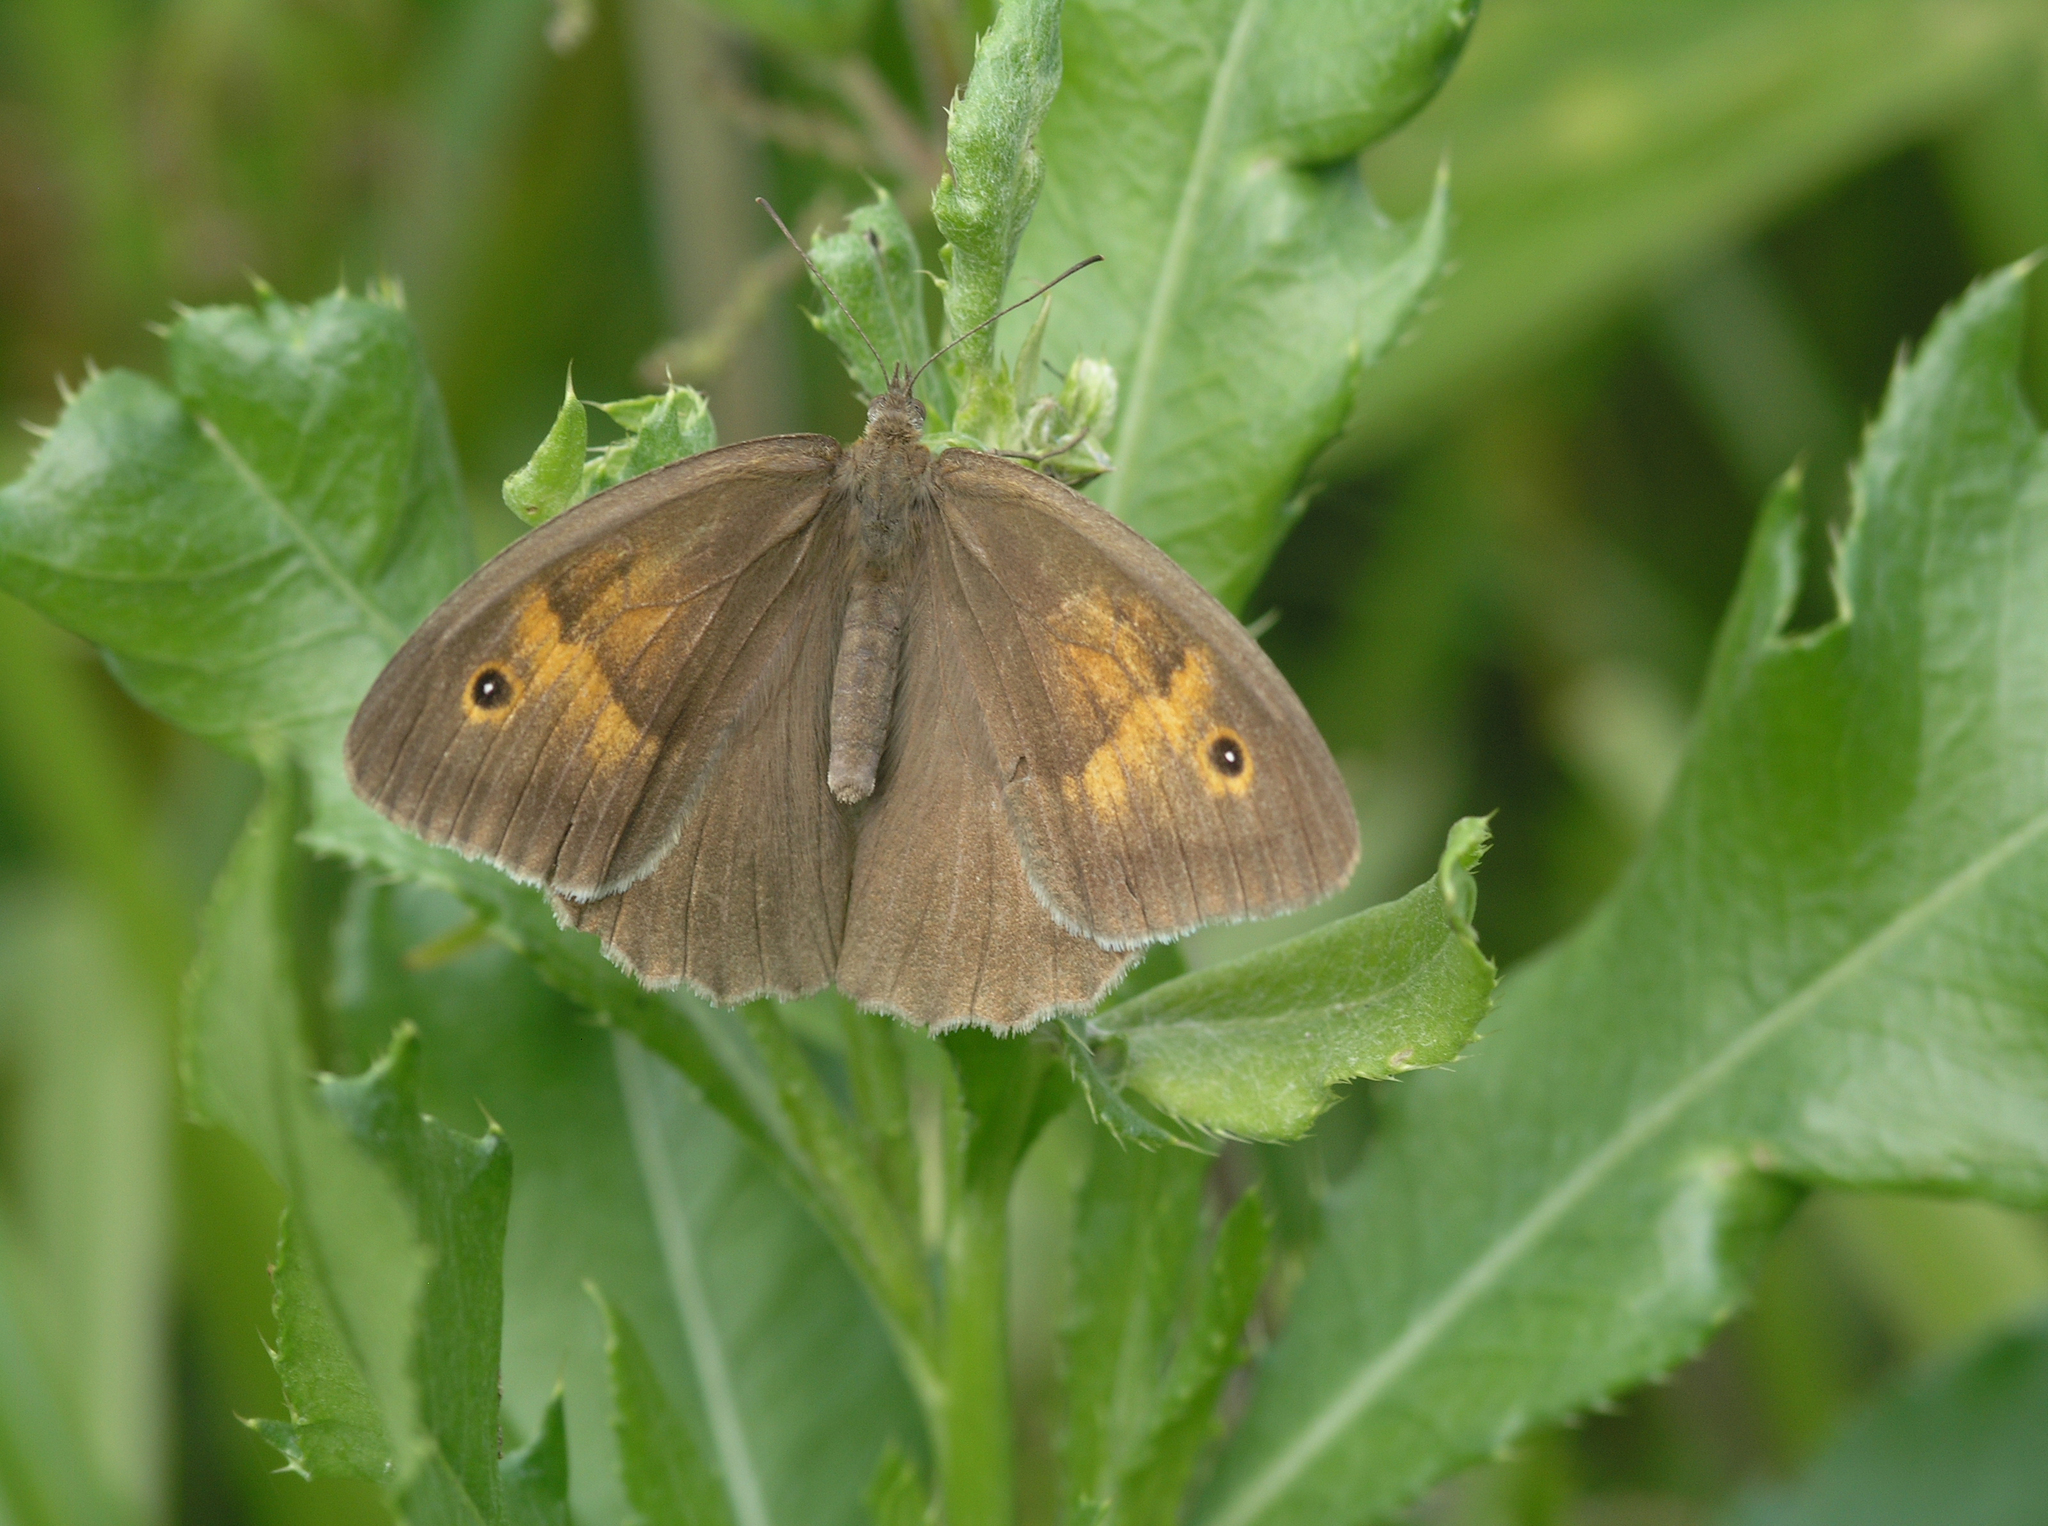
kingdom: Animalia
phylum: Arthropoda
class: Insecta
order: Lepidoptera
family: Nymphalidae
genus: Maniola
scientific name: Maniola jurtina
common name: Meadow brown
